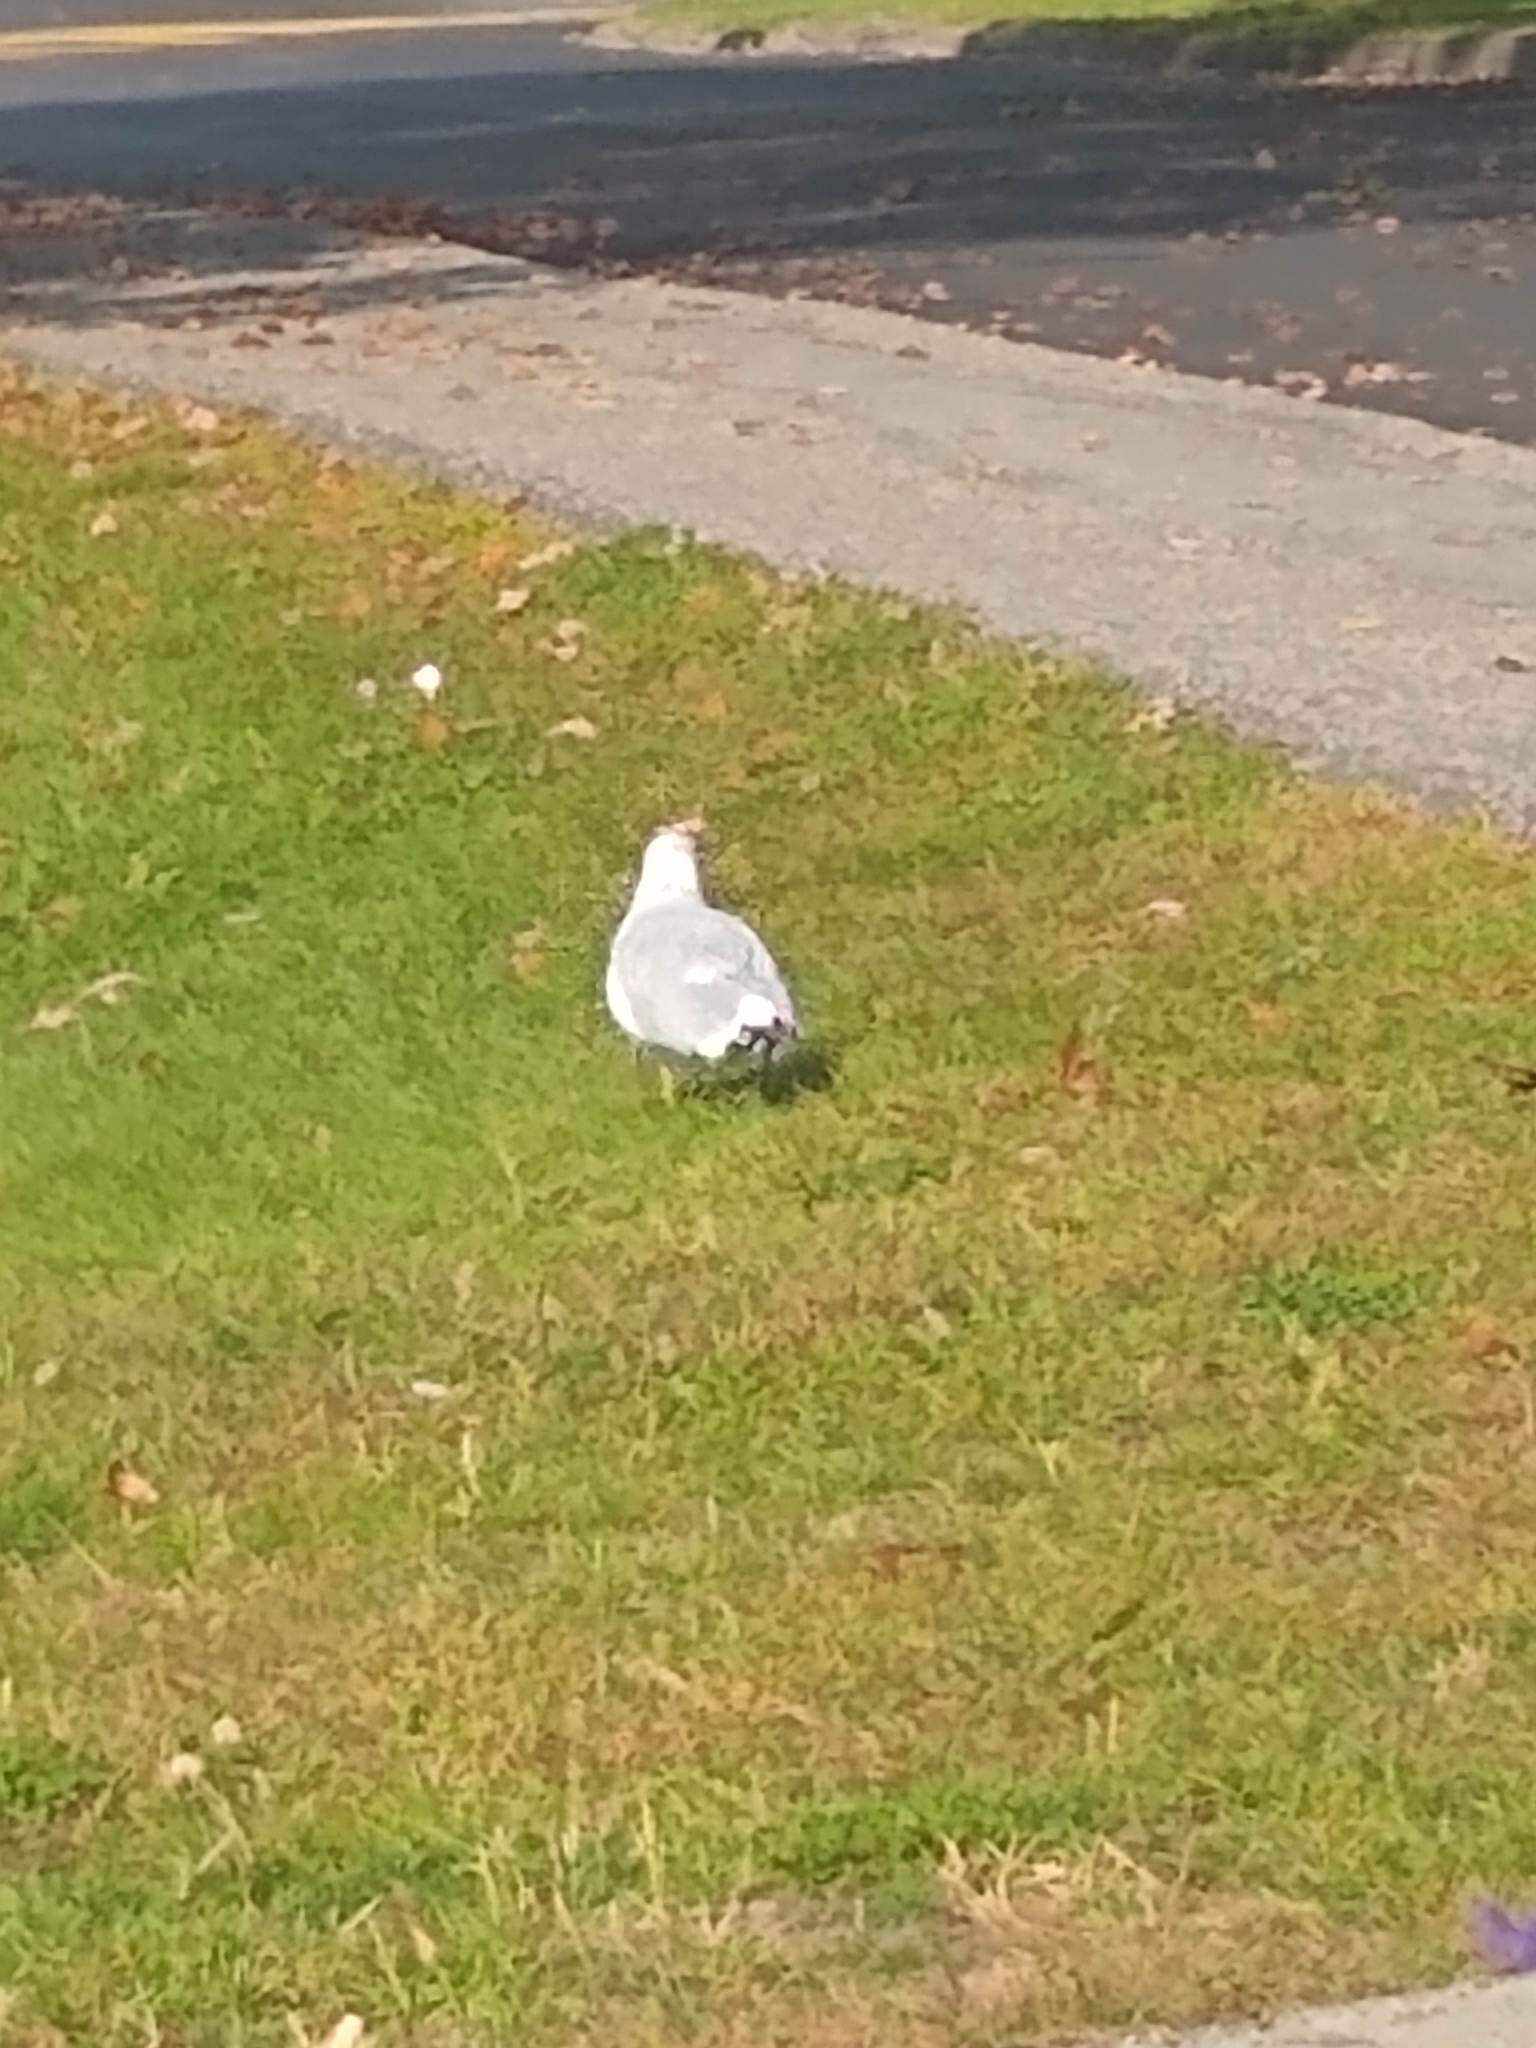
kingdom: Animalia
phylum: Chordata
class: Aves
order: Charadriiformes
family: Laridae
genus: Larus
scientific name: Larus delawarensis
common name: Ring-billed gull
